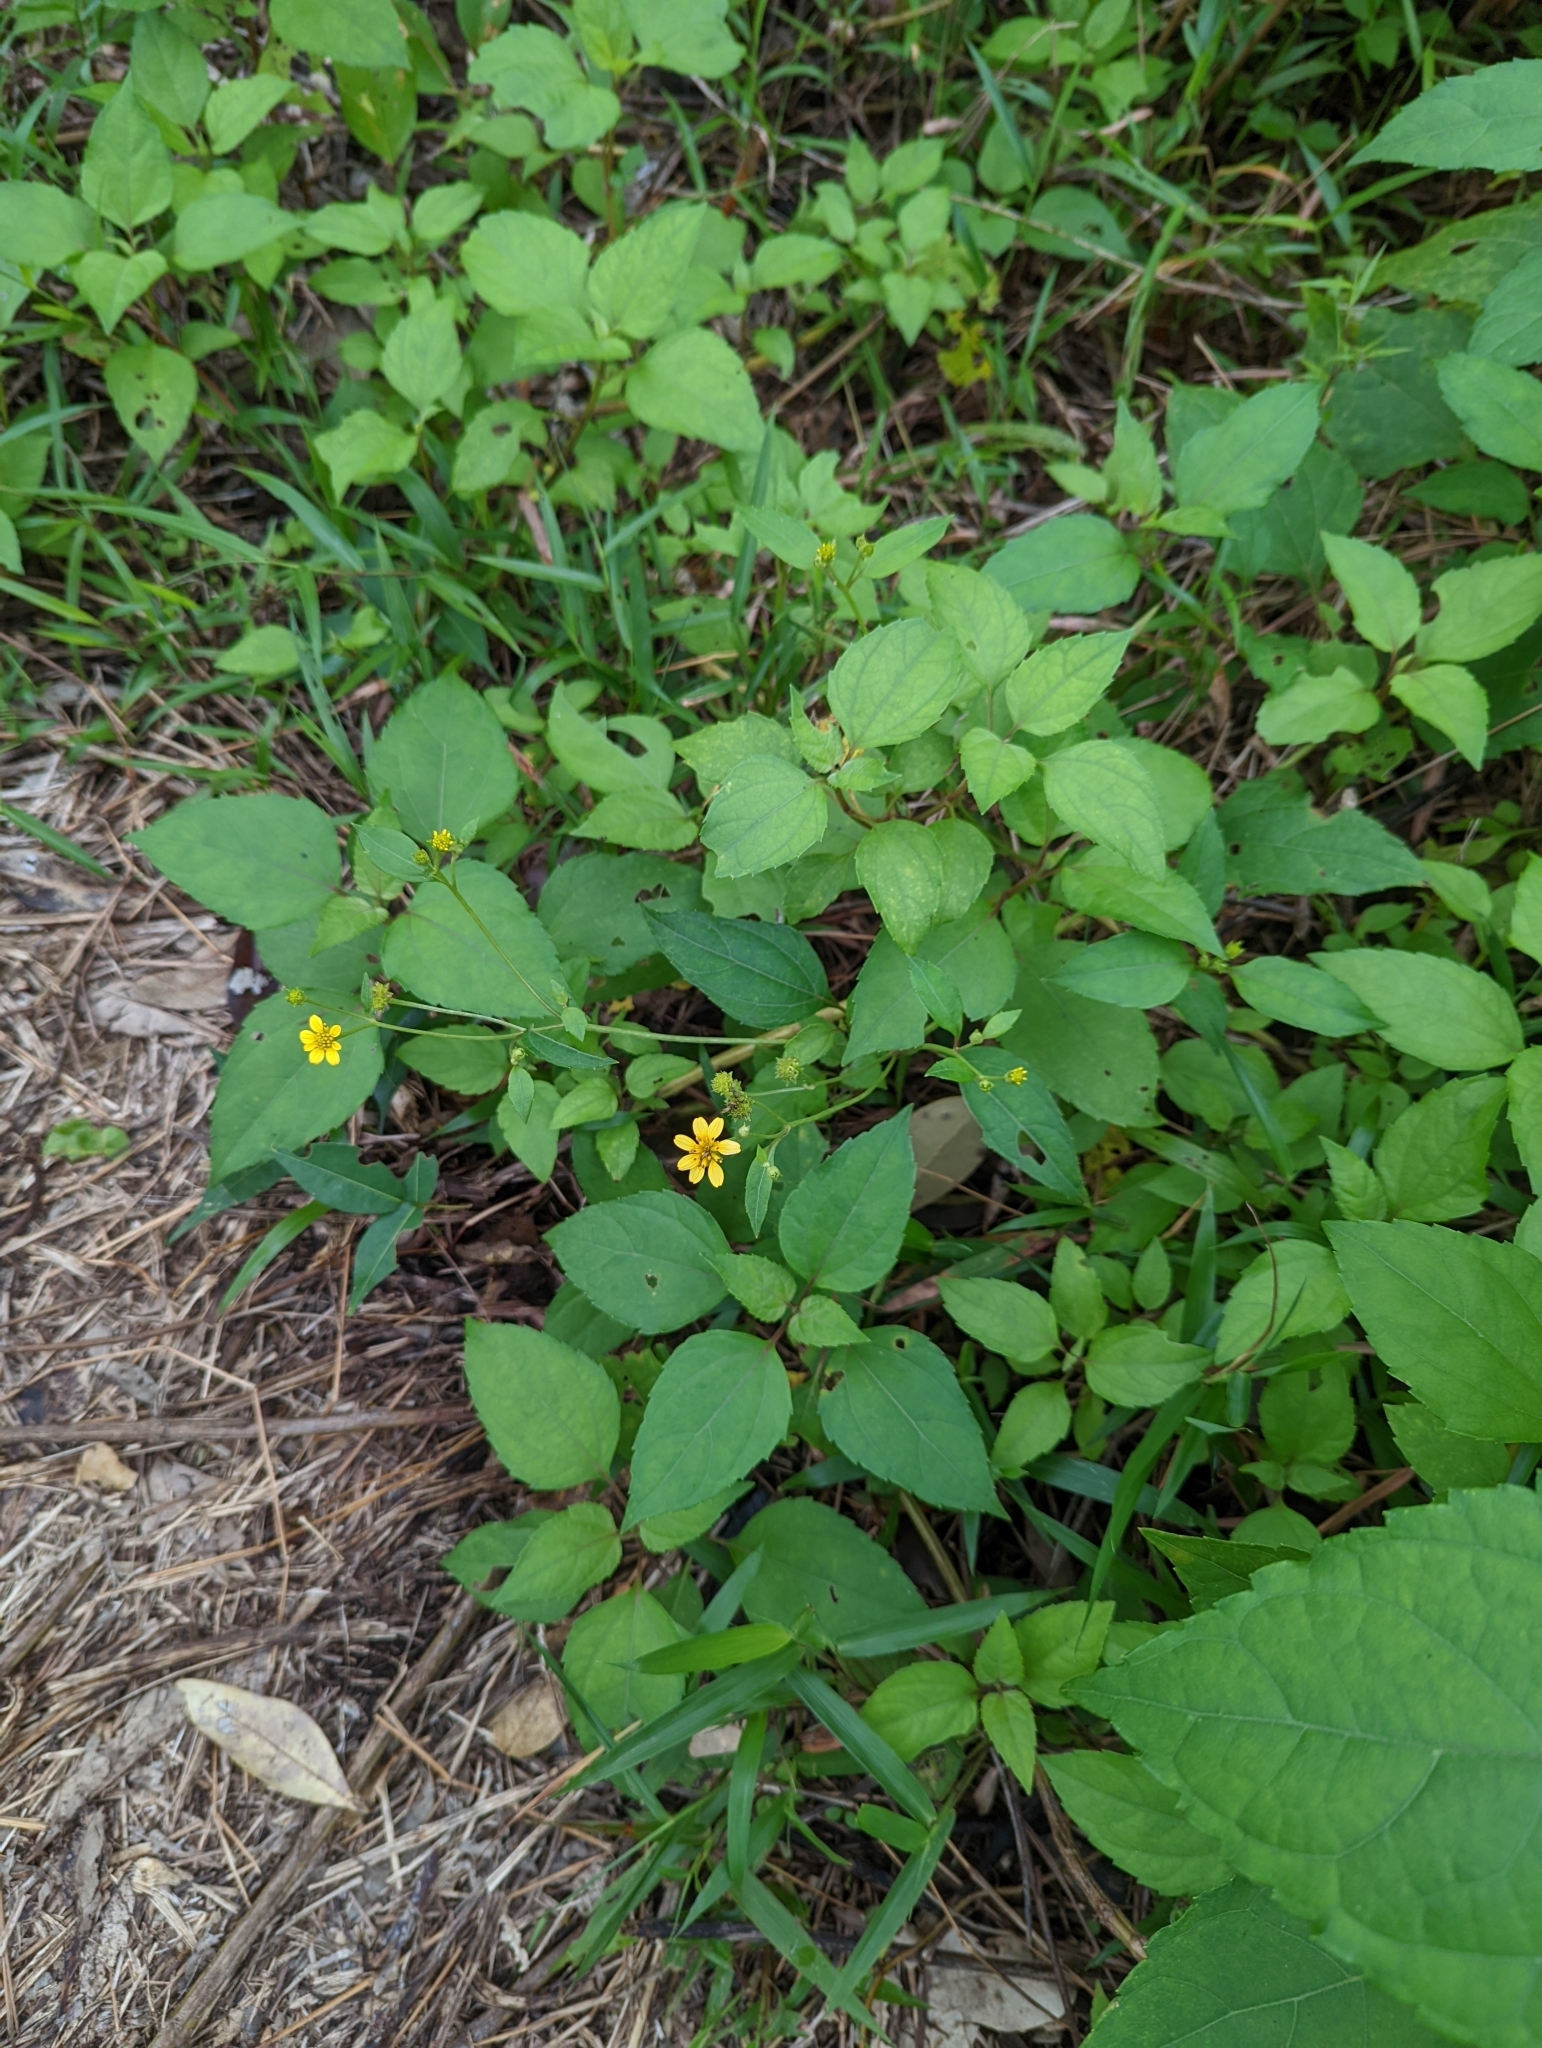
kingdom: Plantae
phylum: Tracheophyta
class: Magnoliopsida
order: Asterales
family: Asteraceae
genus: Wollastonia
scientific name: Wollastonia biflora
